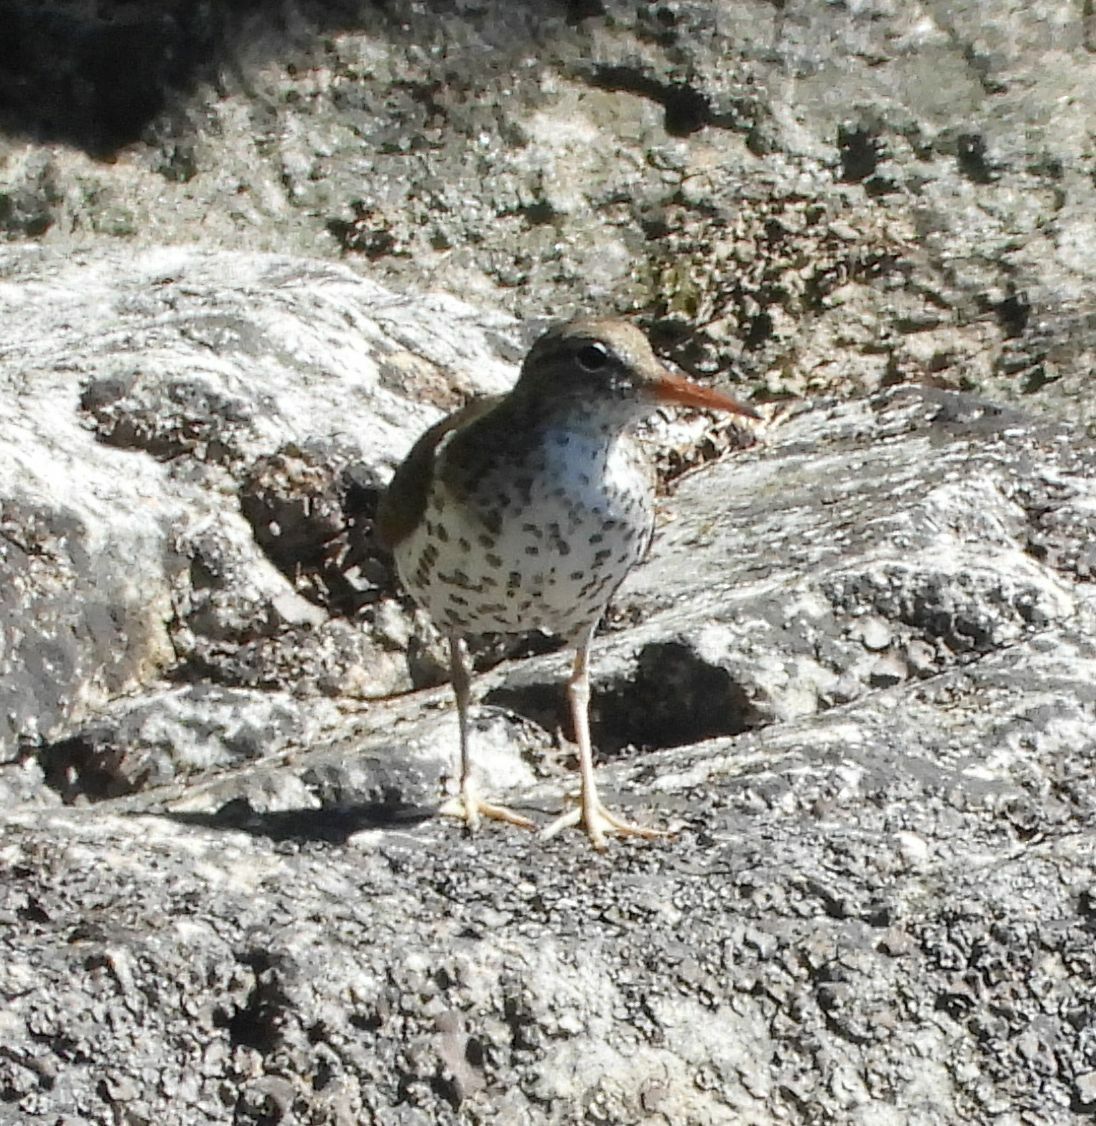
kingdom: Animalia
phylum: Chordata
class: Aves
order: Charadriiformes
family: Scolopacidae
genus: Actitis
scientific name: Actitis macularius
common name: Spotted sandpiper
